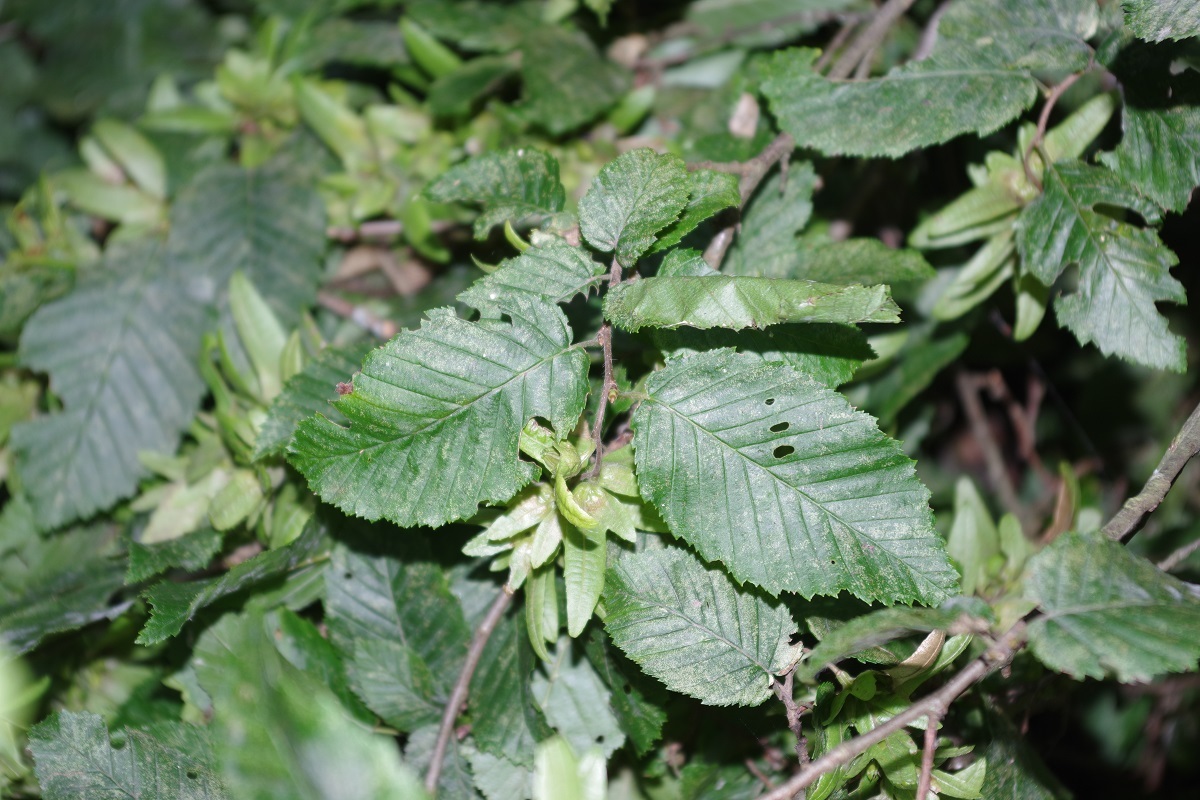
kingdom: Plantae
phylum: Tracheophyta
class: Magnoliopsida
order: Fagales
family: Betulaceae
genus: Carpinus
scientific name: Carpinus betulus
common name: Hornbeam
